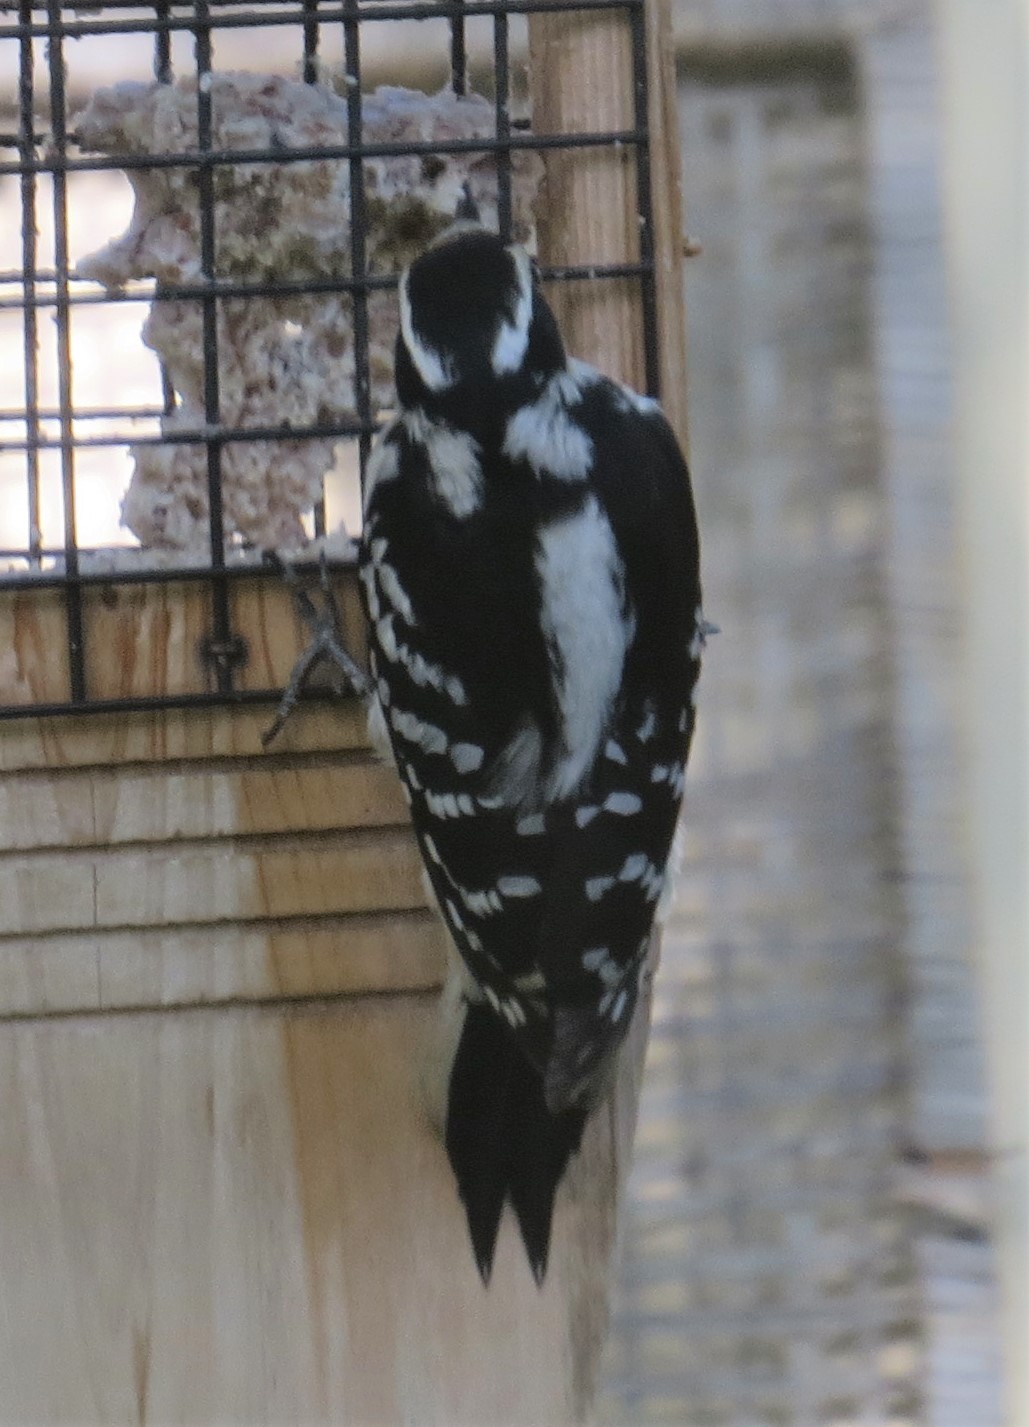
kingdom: Animalia
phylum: Chordata
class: Aves
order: Piciformes
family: Picidae
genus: Dryobates
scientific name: Dryobates pubescens
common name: Downy woodpecker
